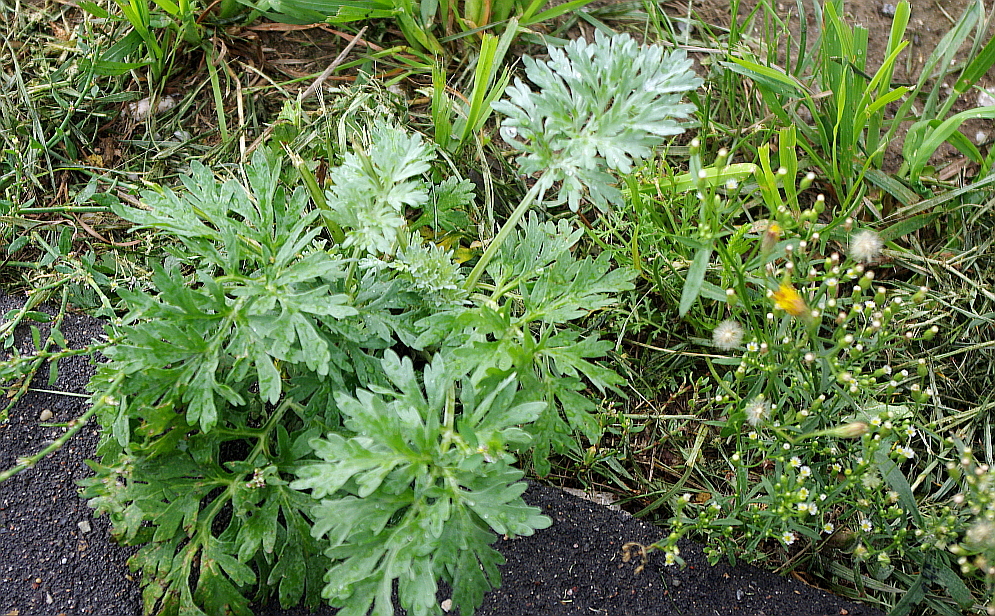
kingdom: Plantae
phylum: Tracheophyta
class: Magnoliopsida
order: Asterales
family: Asteraceae
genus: Artemisia
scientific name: Artemisia absinthium
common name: Wormwood
